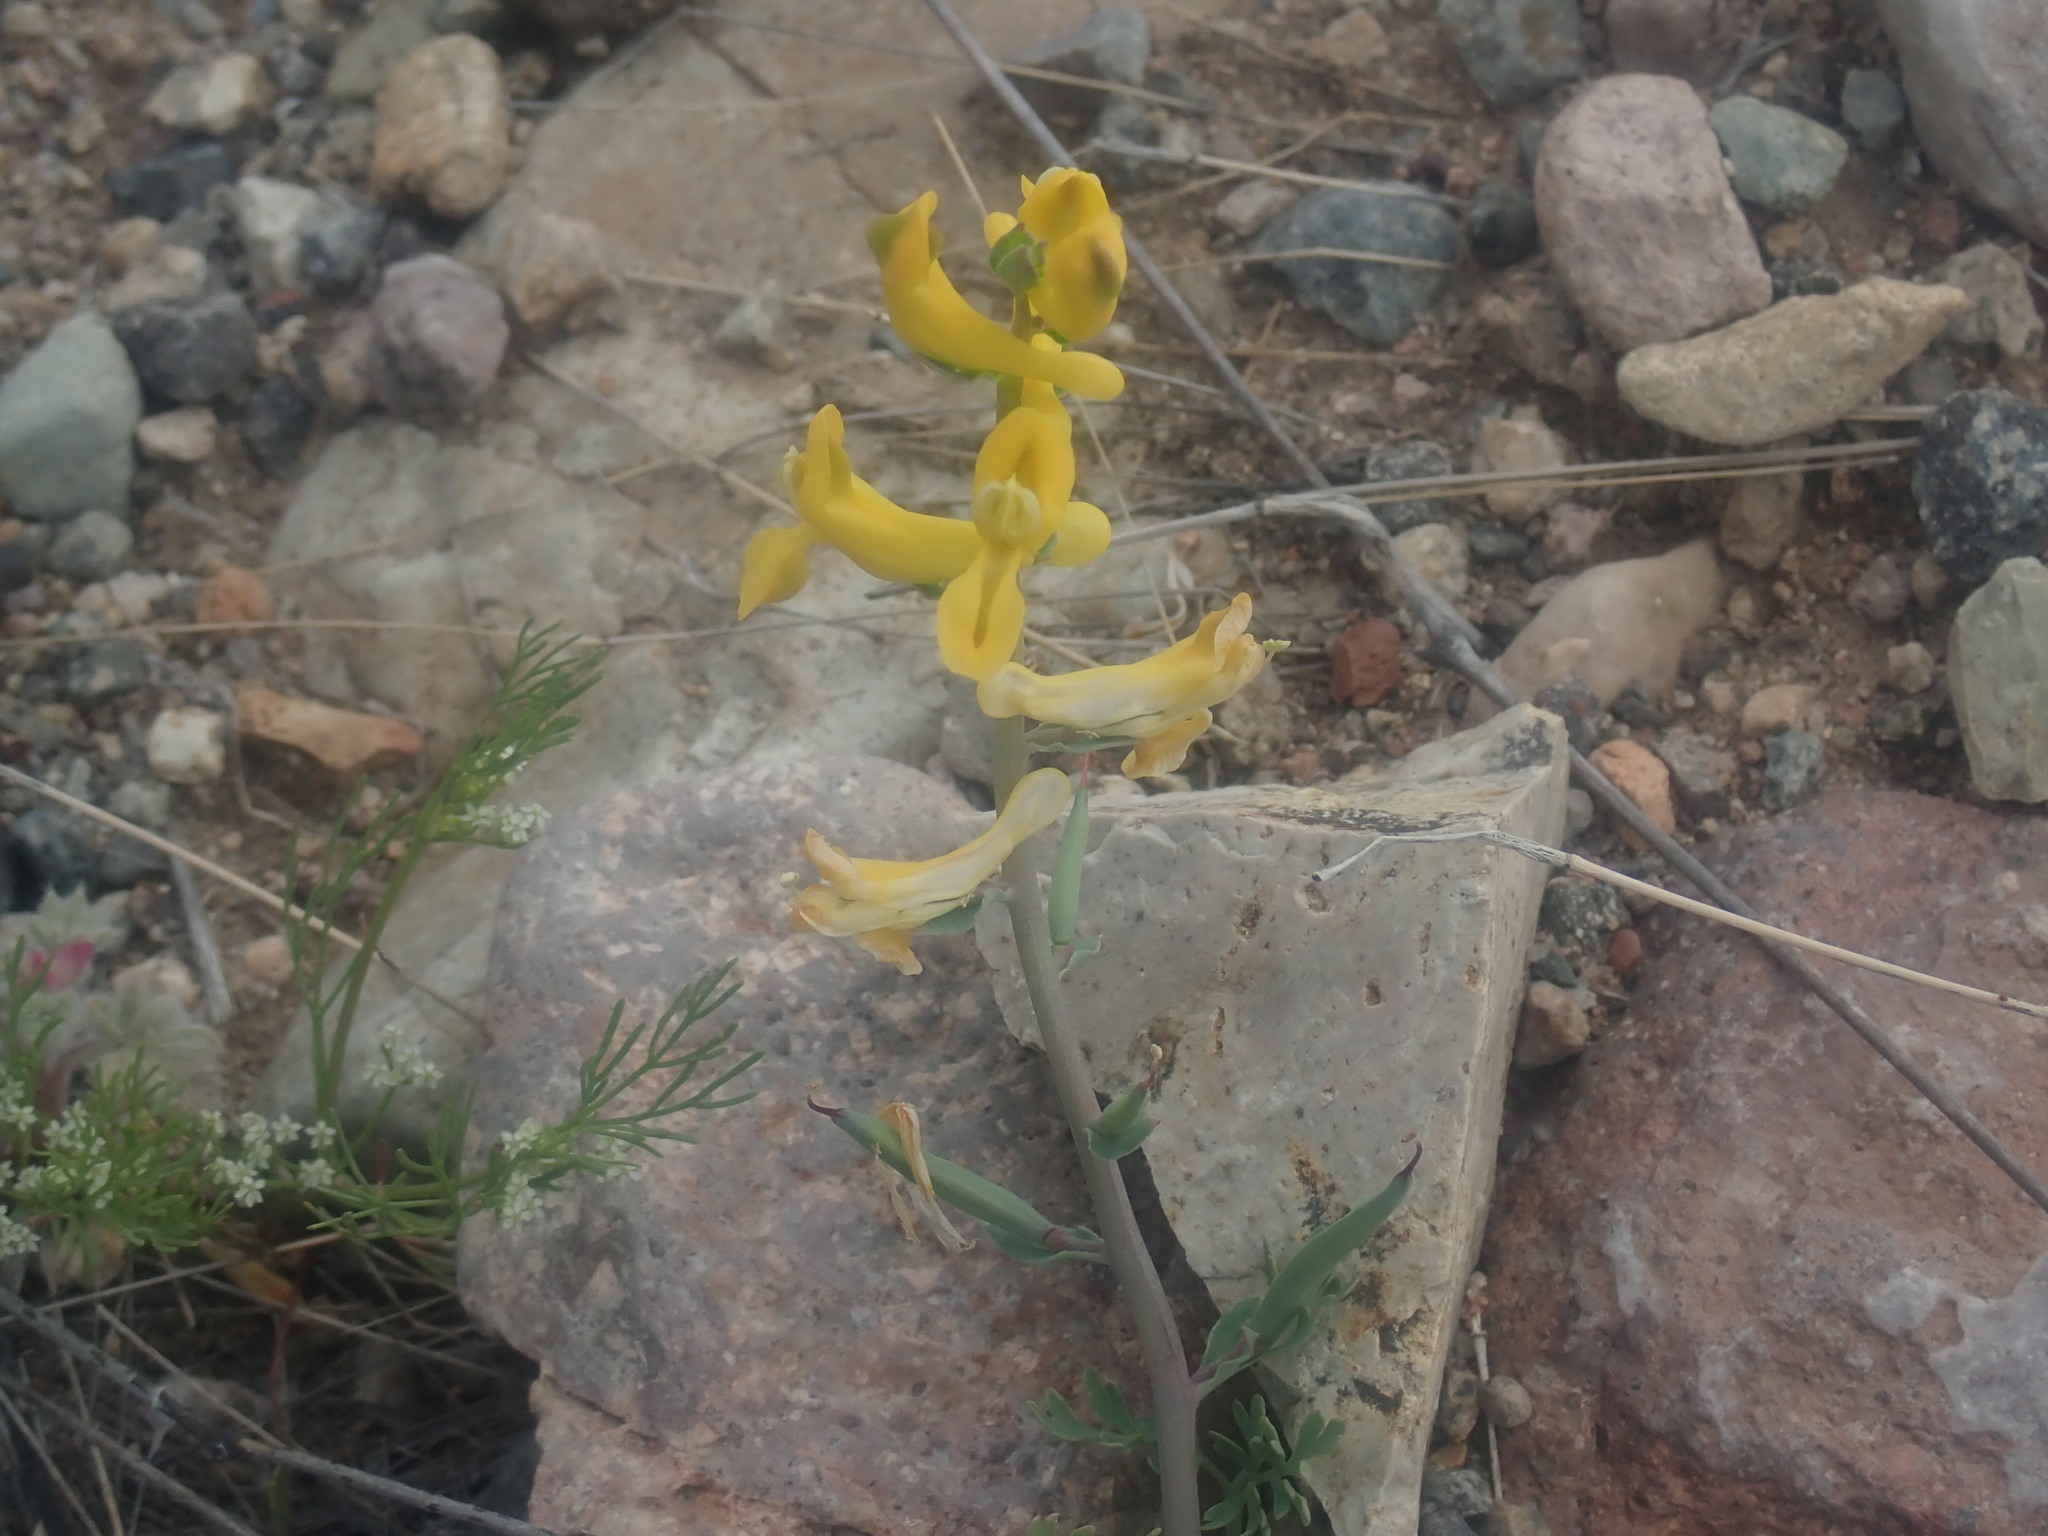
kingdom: Plantae
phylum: Tracheophyta
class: Magnoliopsida
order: Ranunculales
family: Papaveraceae
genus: Corydalis
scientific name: Corydalis aurea
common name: Golden corydalis
